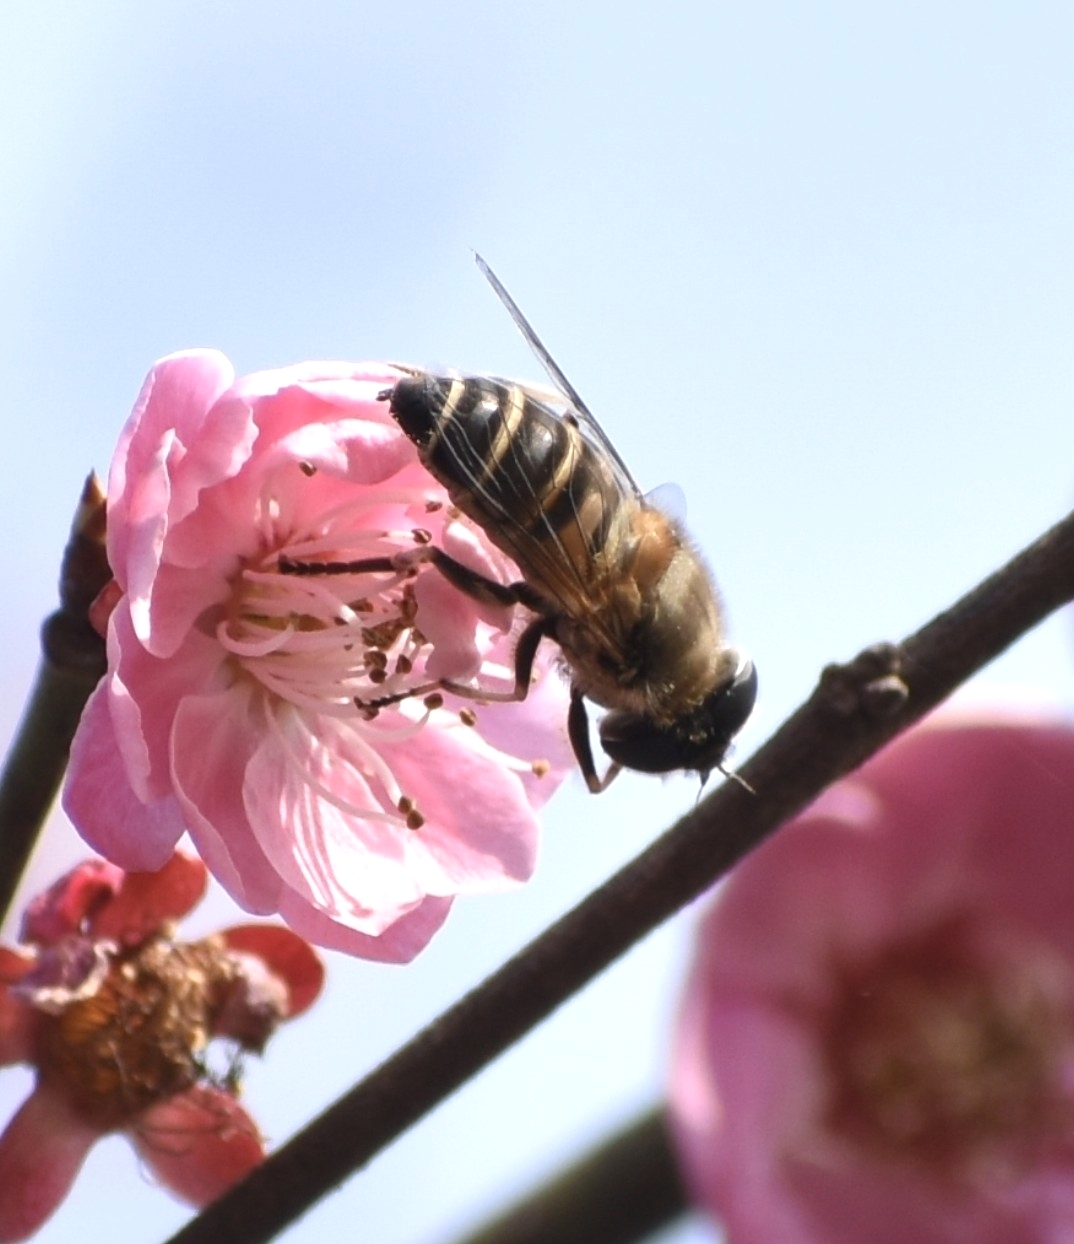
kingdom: Animalia
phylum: Arthropoda
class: Insecta
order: Diptera
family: Syrphidae
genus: Eristalis
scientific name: Eristalis cerealis
